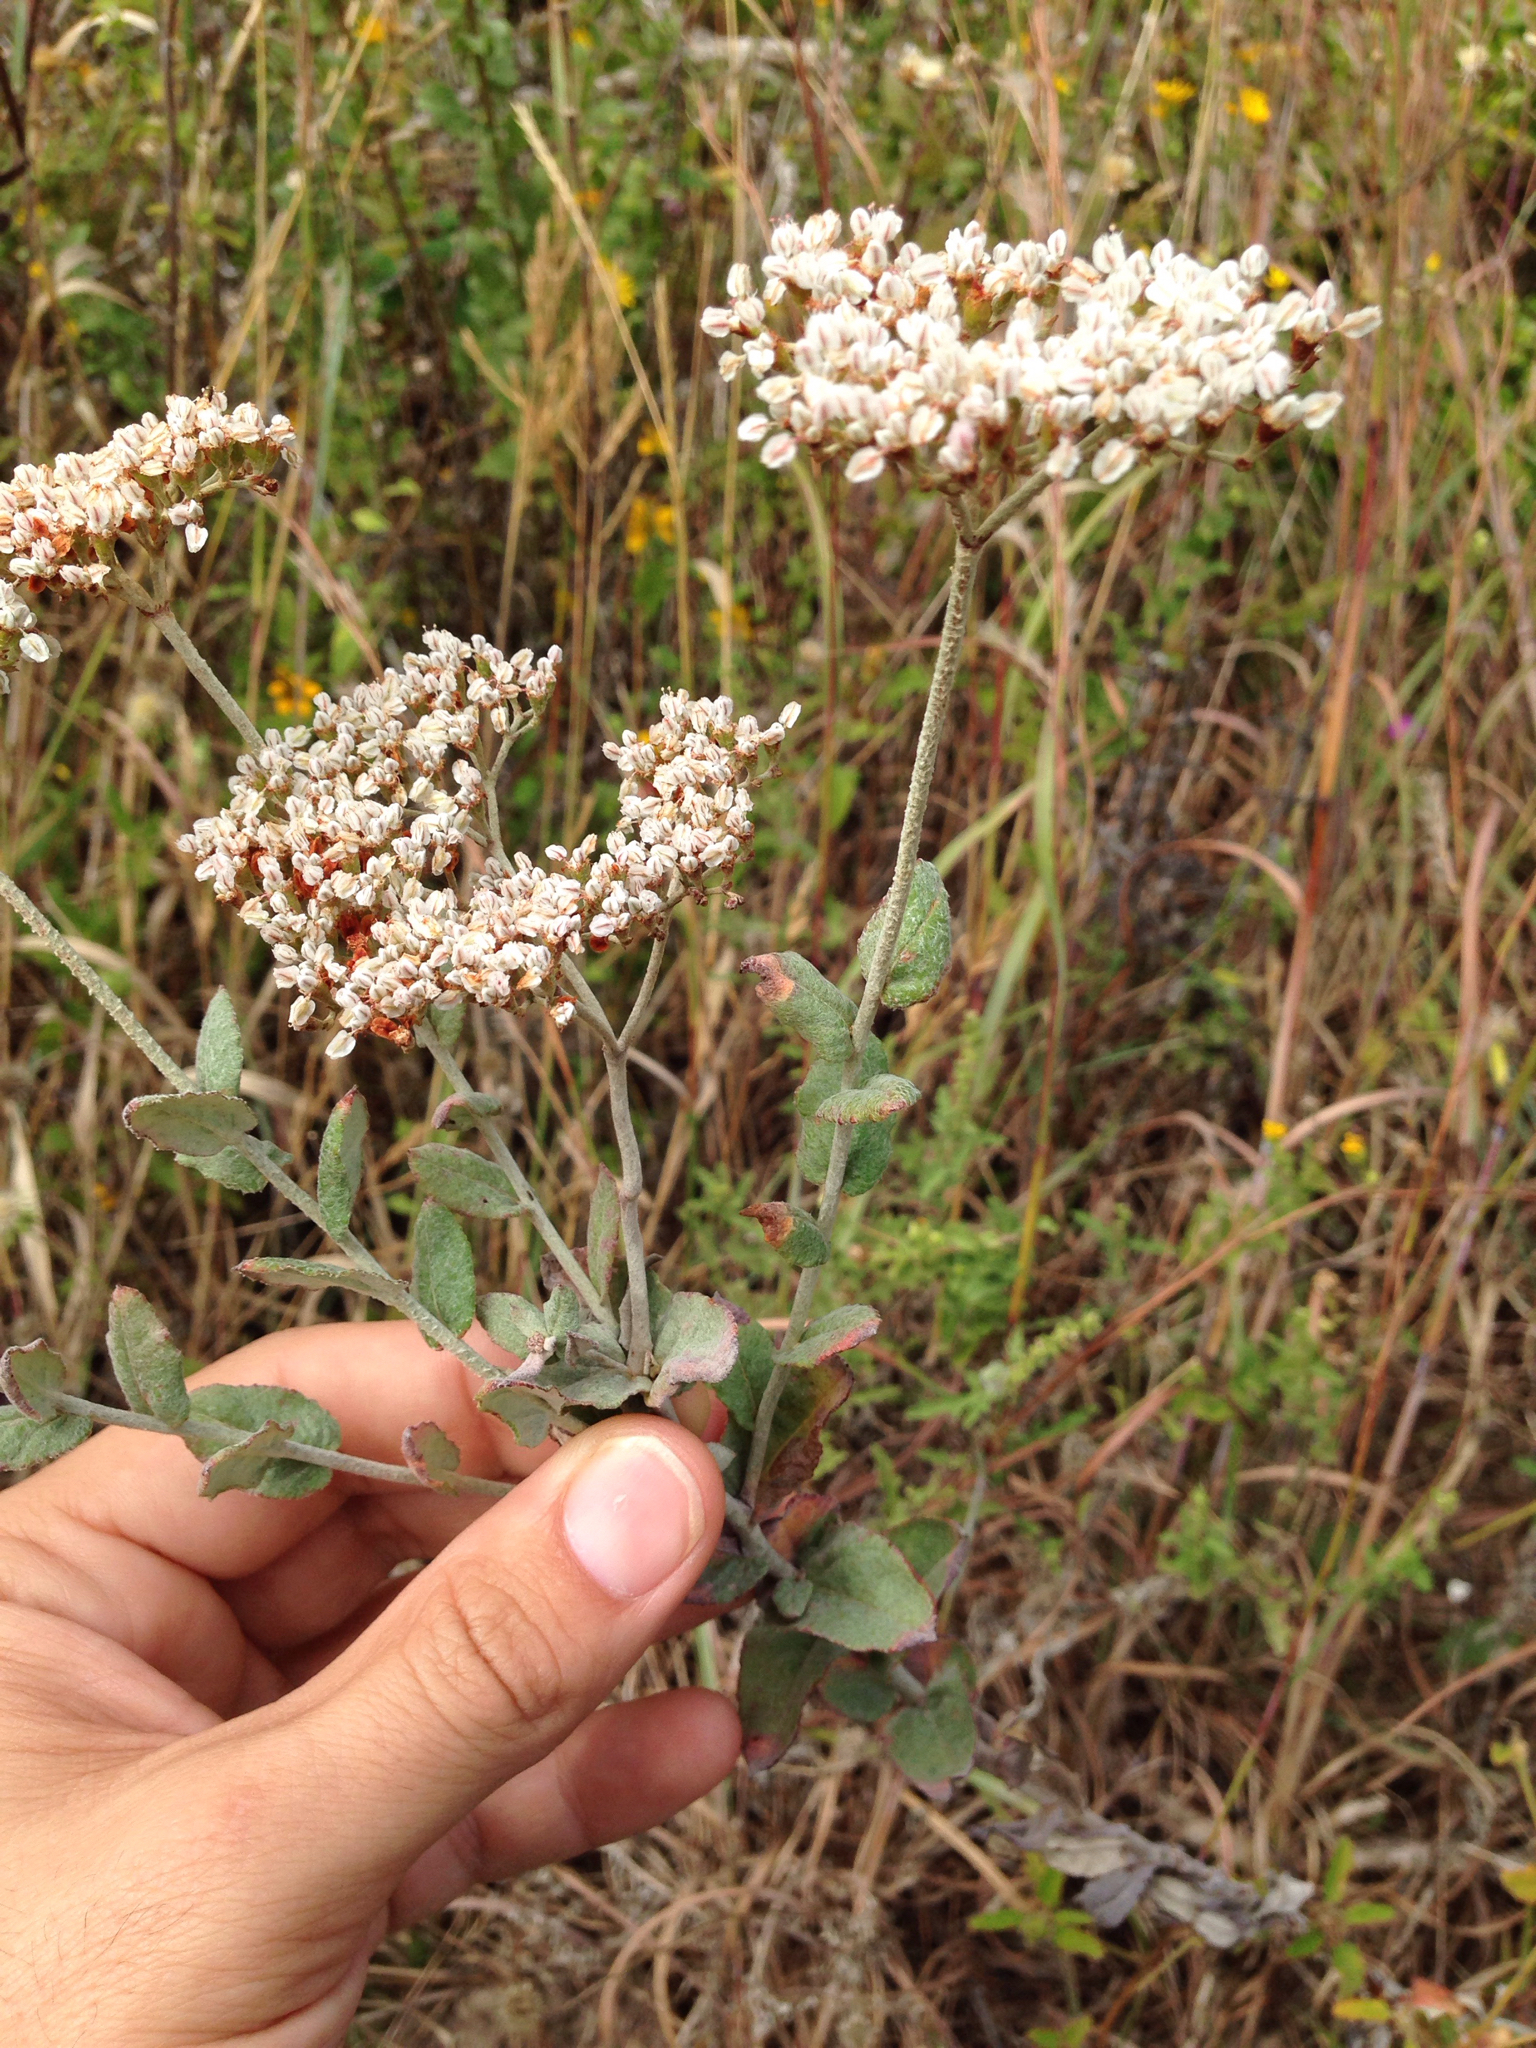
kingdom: Plantae
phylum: Tracheophyta
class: Magnoliopsida
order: Caryophyllales
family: Polygonaceae
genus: Eriogonum
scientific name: Eriogonum multiflorum
